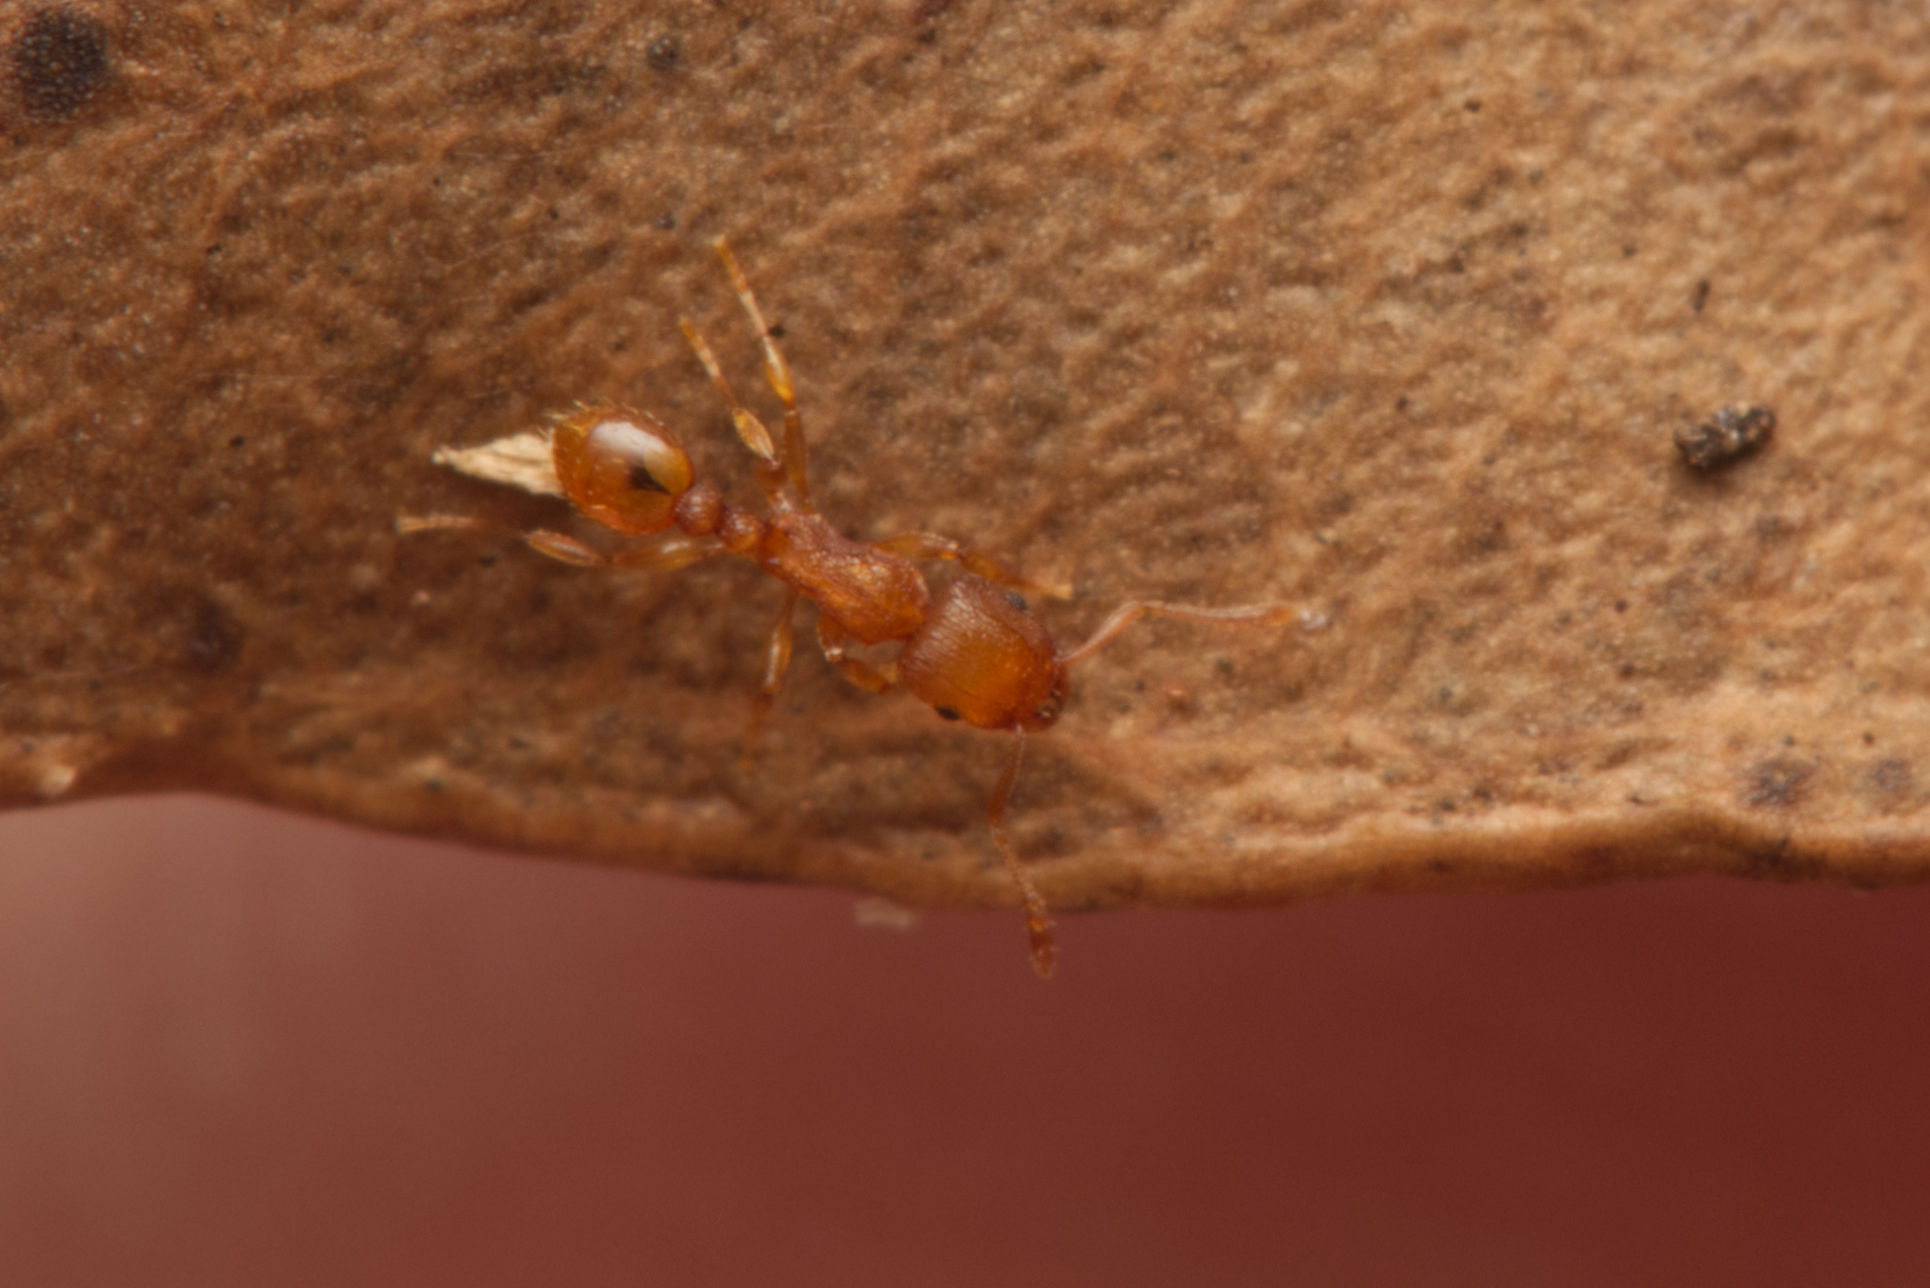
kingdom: Animalia
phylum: Arthropoda
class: Insecta
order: Hymenoptera
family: Formicidae
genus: Tetramorium
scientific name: Tetramorium simillimum
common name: Ant
